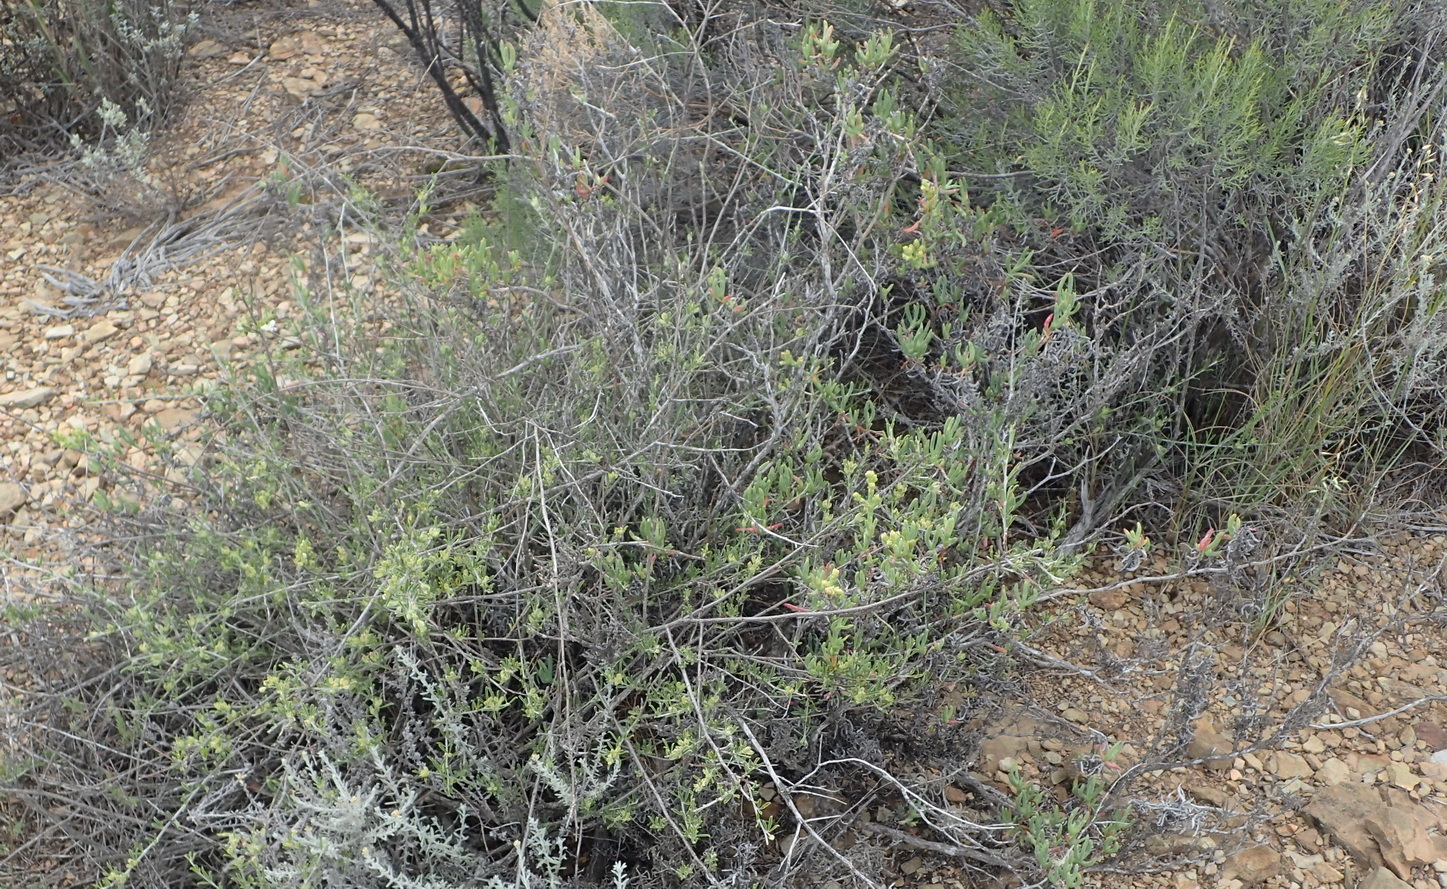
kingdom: Plantae
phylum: Tracheophyta
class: Magnoliopsida
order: Fabales
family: Fabaceae
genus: Psoralea
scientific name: Psoralea candicans
